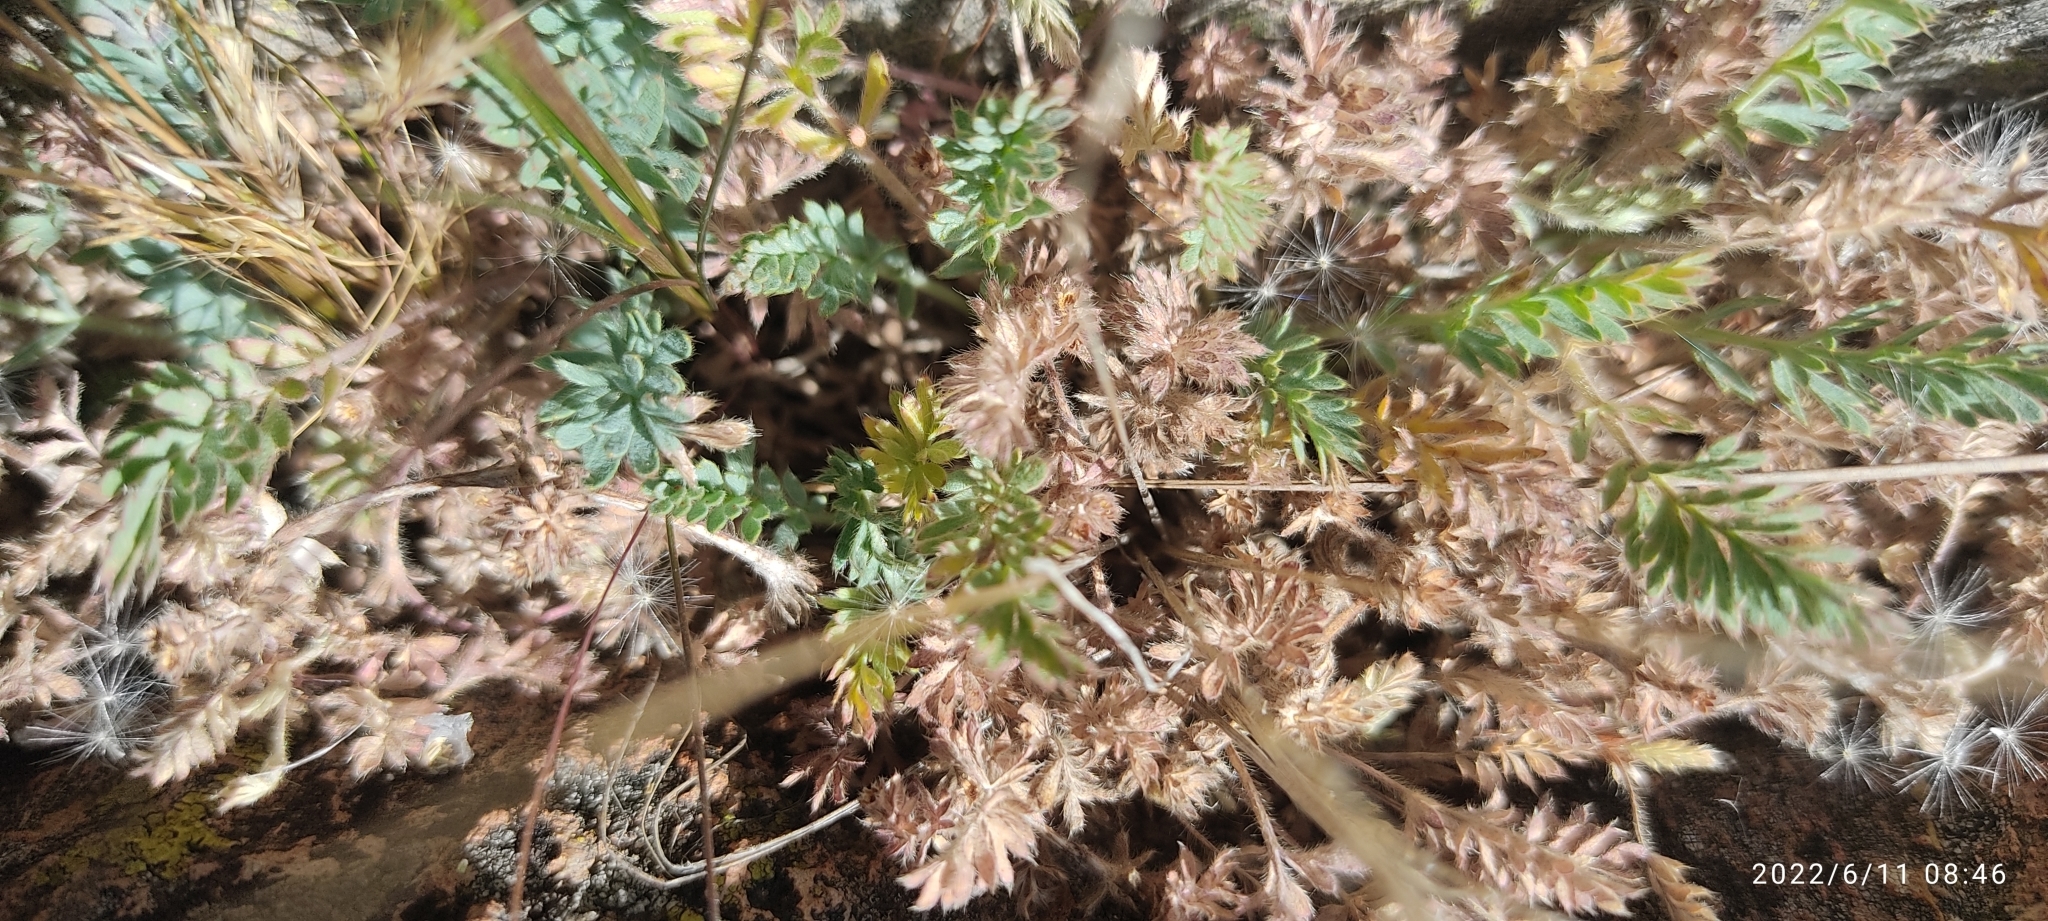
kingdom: Plantae
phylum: Tracheophyta
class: Magnoliopsida
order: Rosales
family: Rosaceae
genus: Lachemilla
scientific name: Lachemilla
